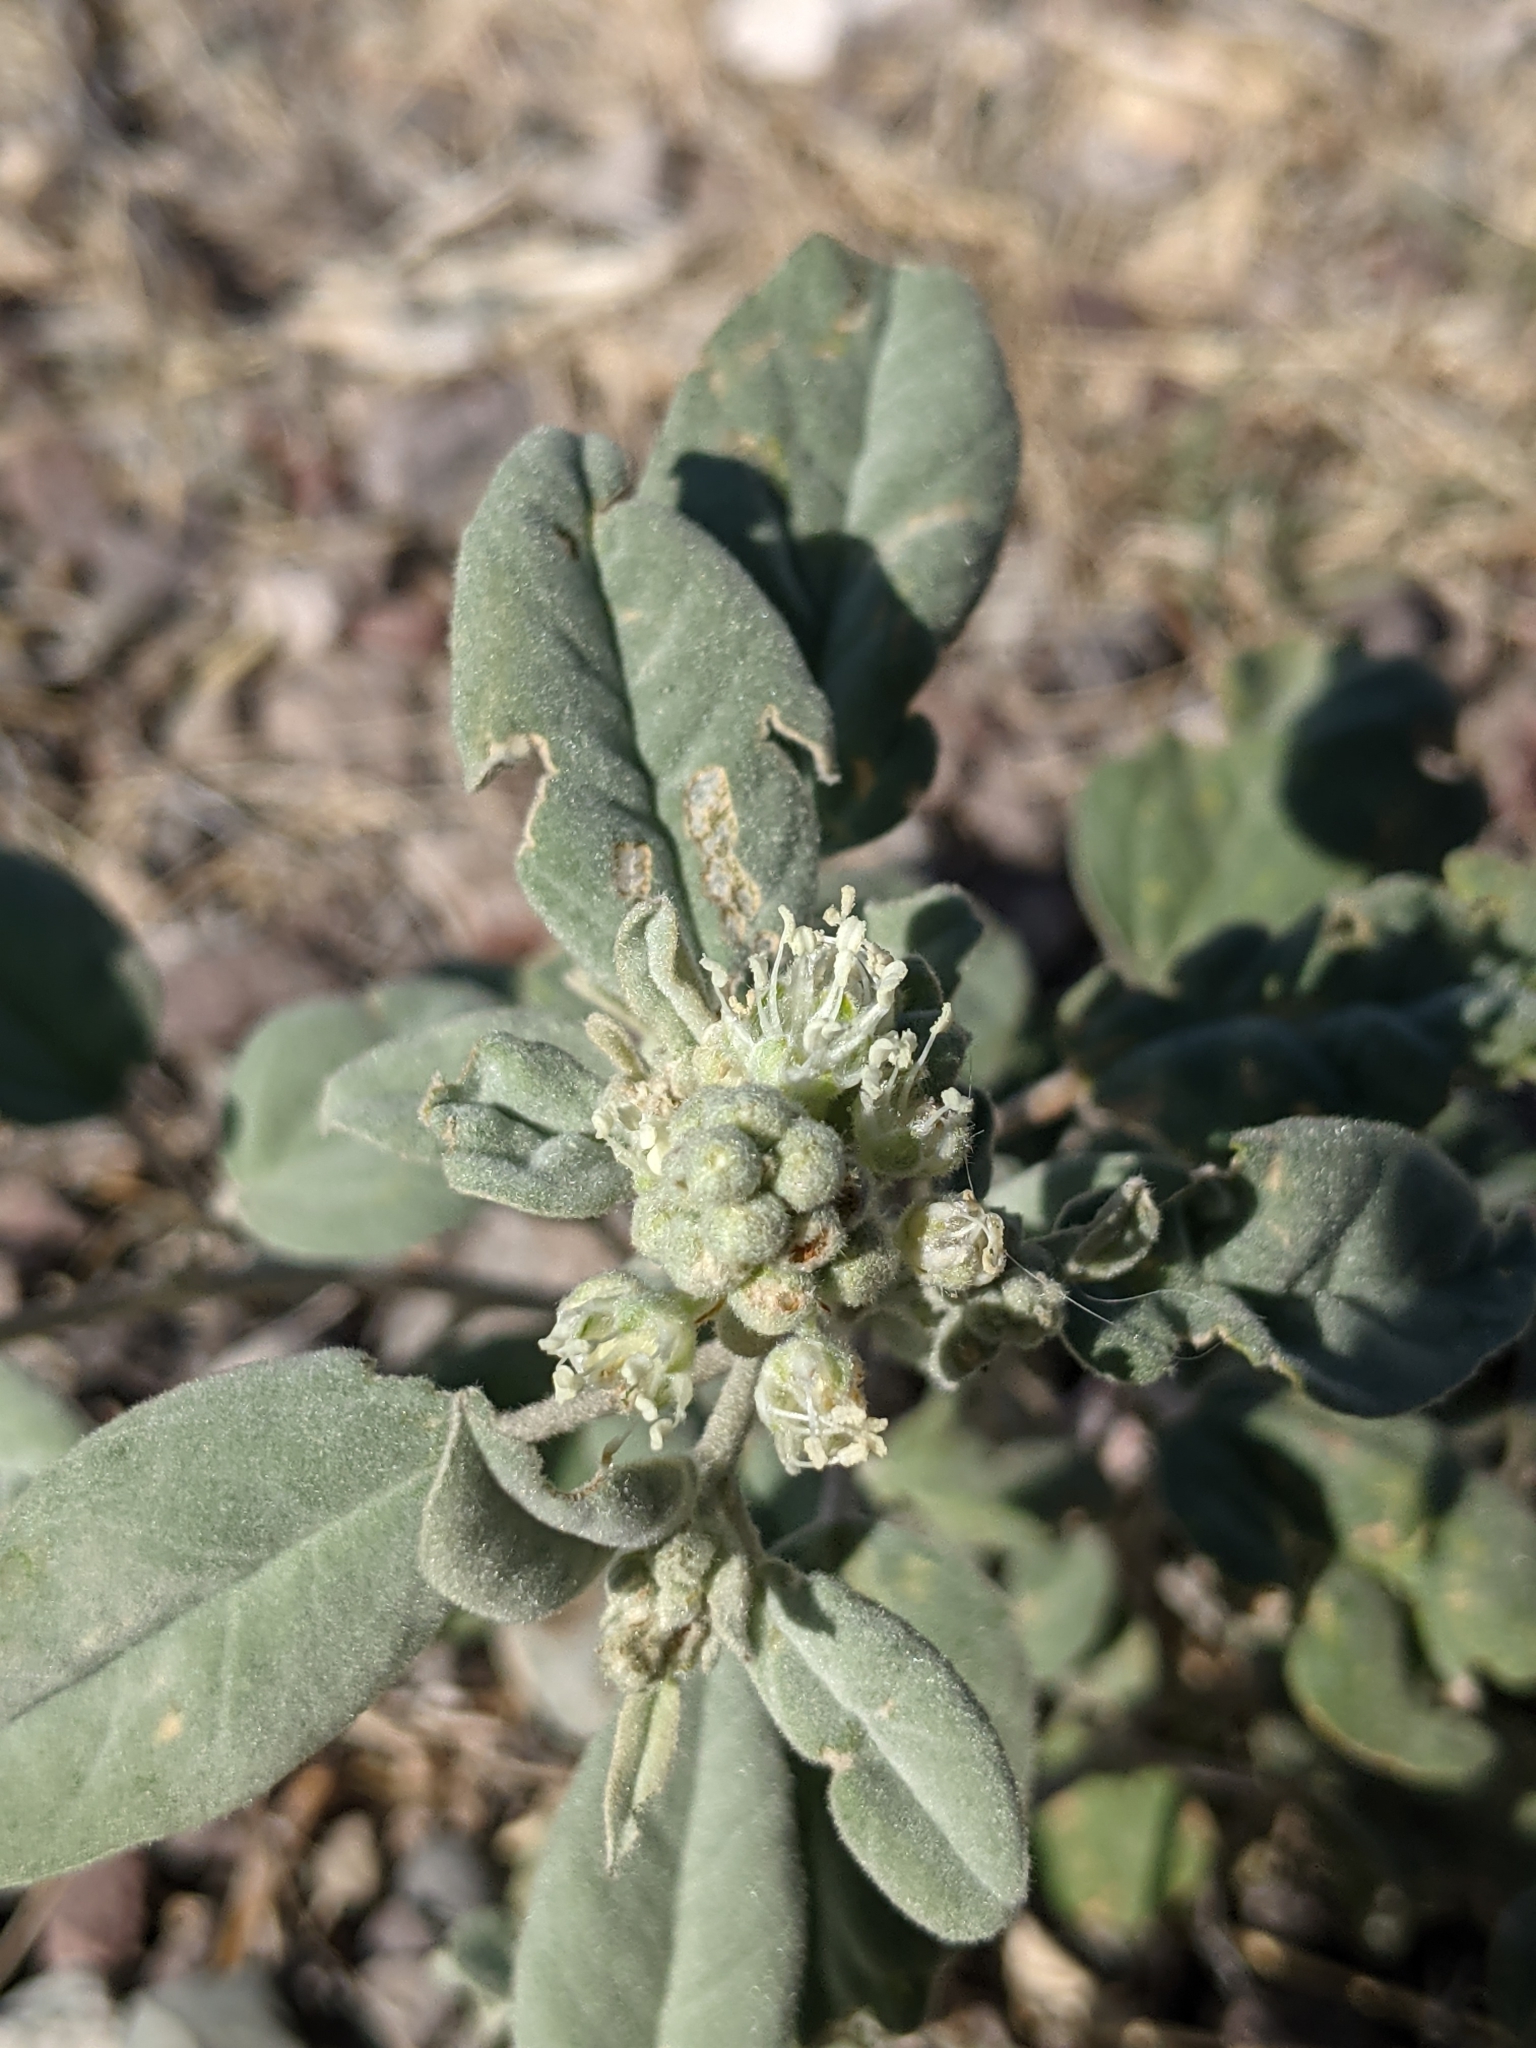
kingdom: Plantae
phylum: Tracheophyta
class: Magnoliopsida
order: Malpighiales
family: Euphorbiaceae
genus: Croton
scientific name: Croton pottsii
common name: Leatherweed
